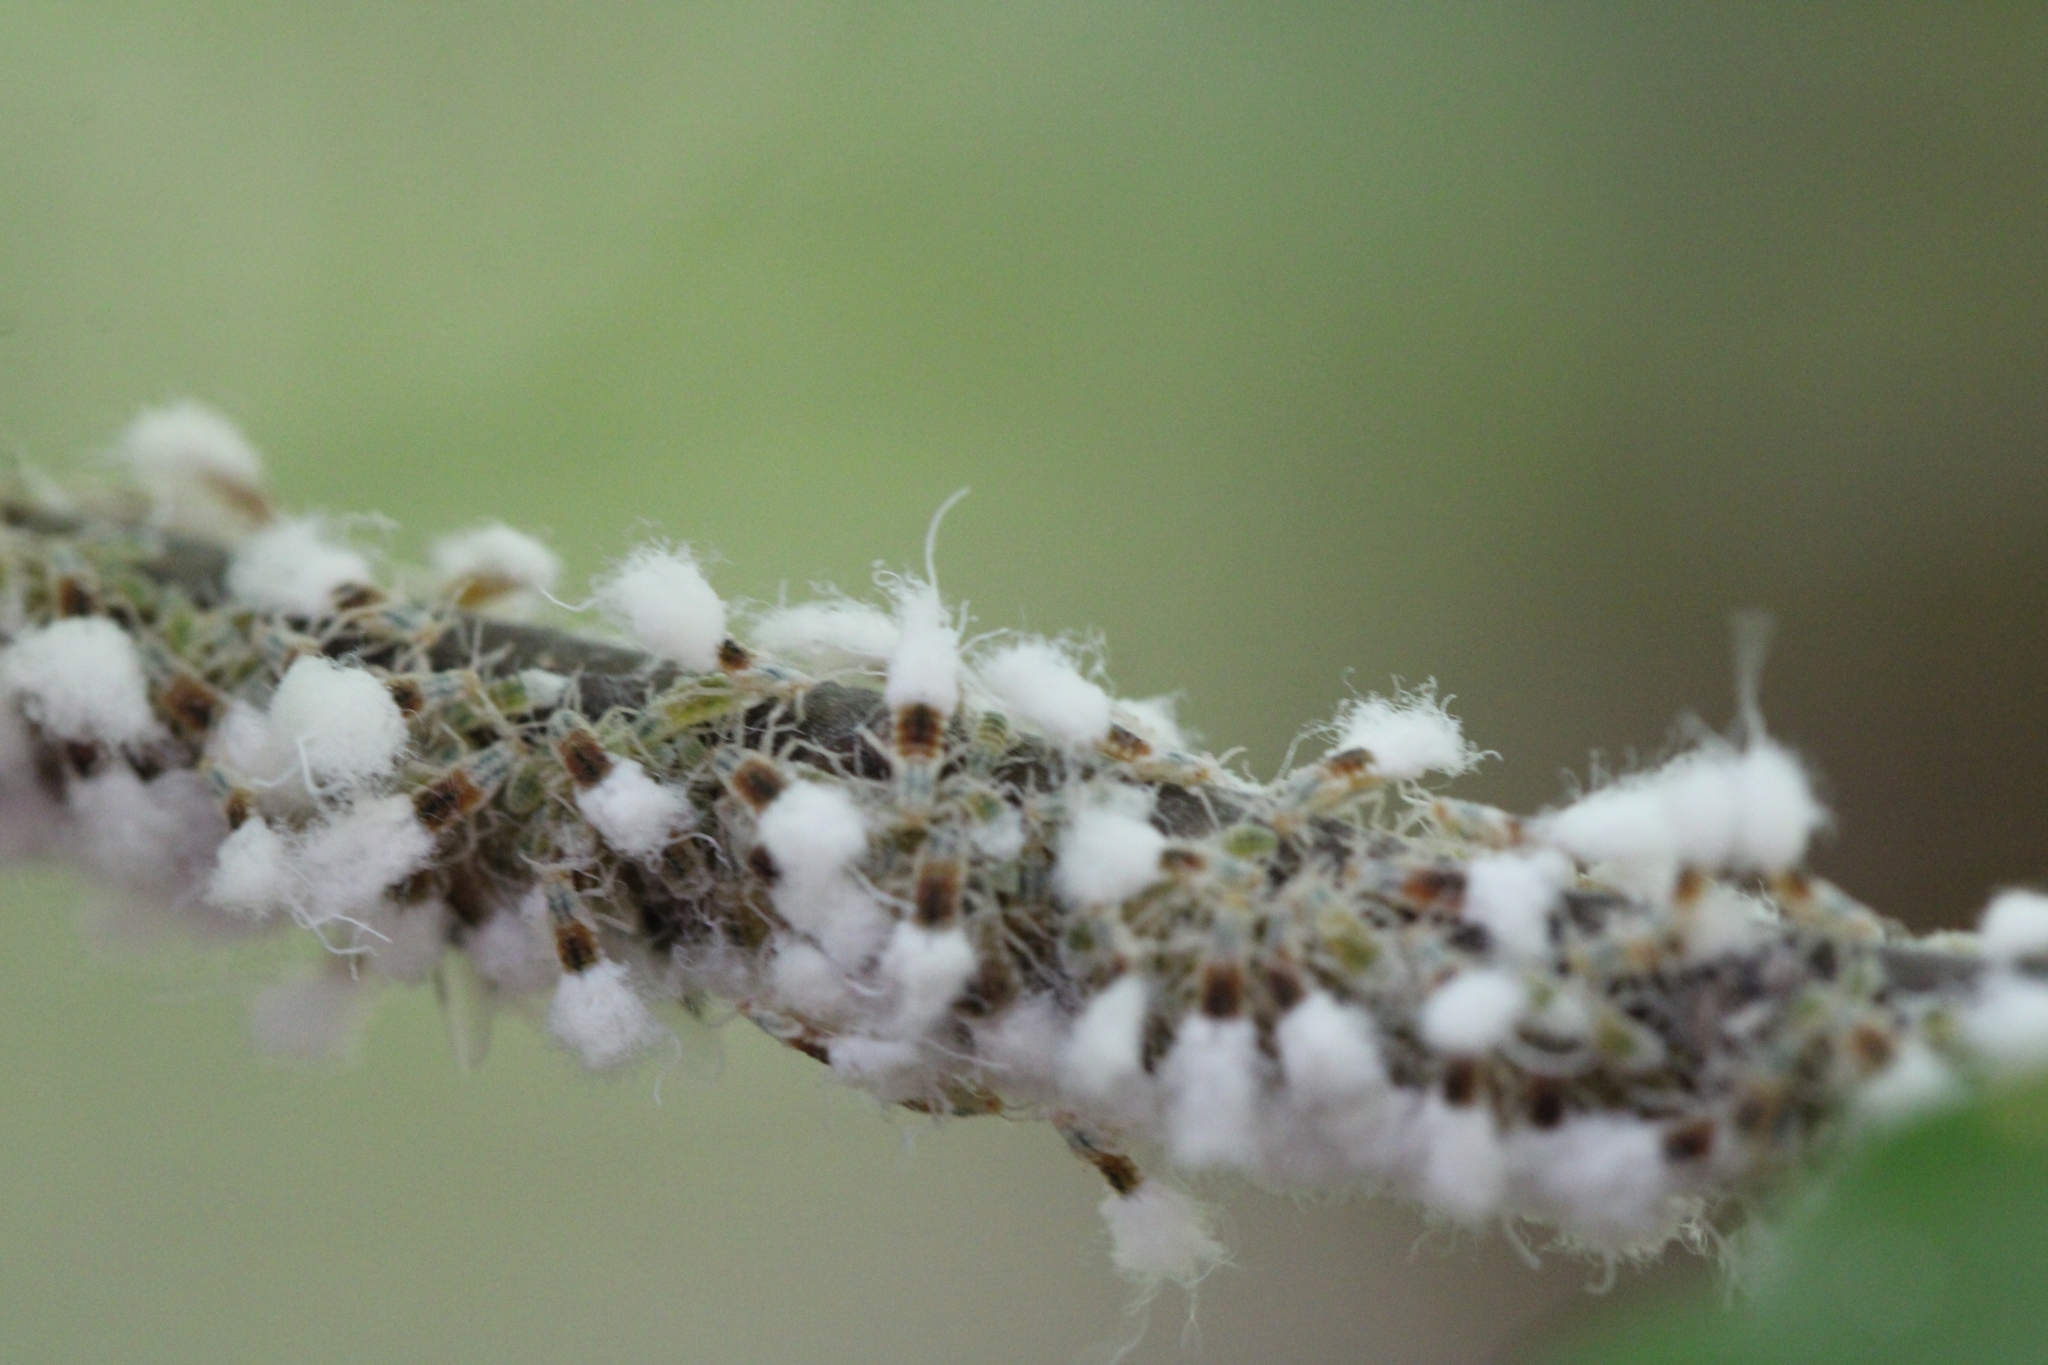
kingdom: Animalia
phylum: Arthropoda
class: Insecta
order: Hemiptera
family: Aphididae
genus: Grylloprociphilus
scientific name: Grylloprociphilus imbricator
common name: Beech blight aphid
